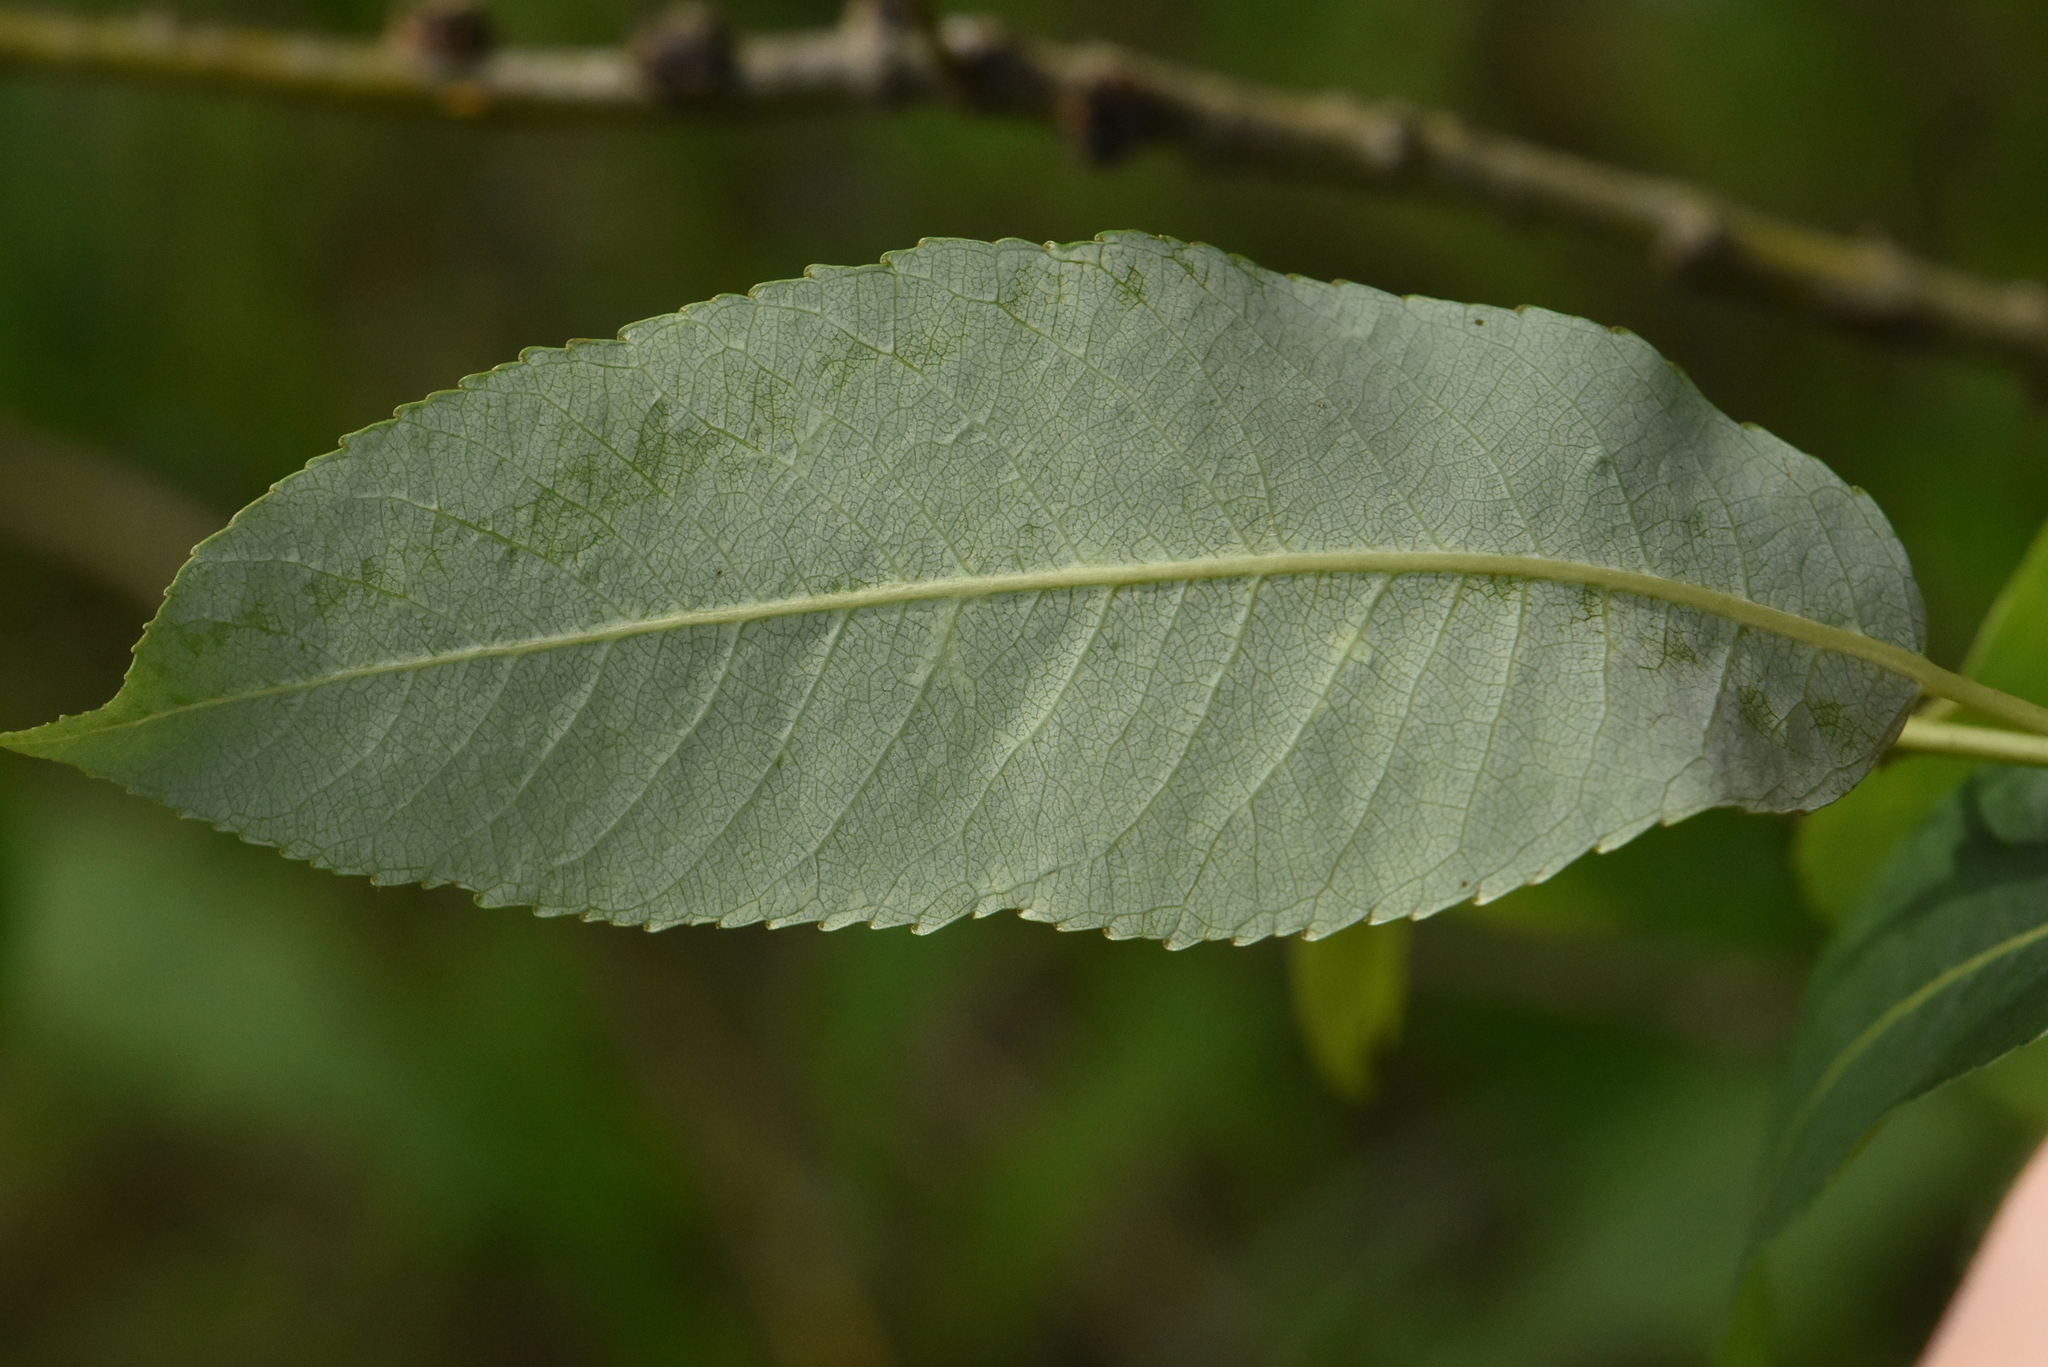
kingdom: Plantae
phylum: Tracheophyta
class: Magnoliopsida
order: Malpighiales
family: Salicaceae
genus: Salix
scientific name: Salix triandra
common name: Almond willow
